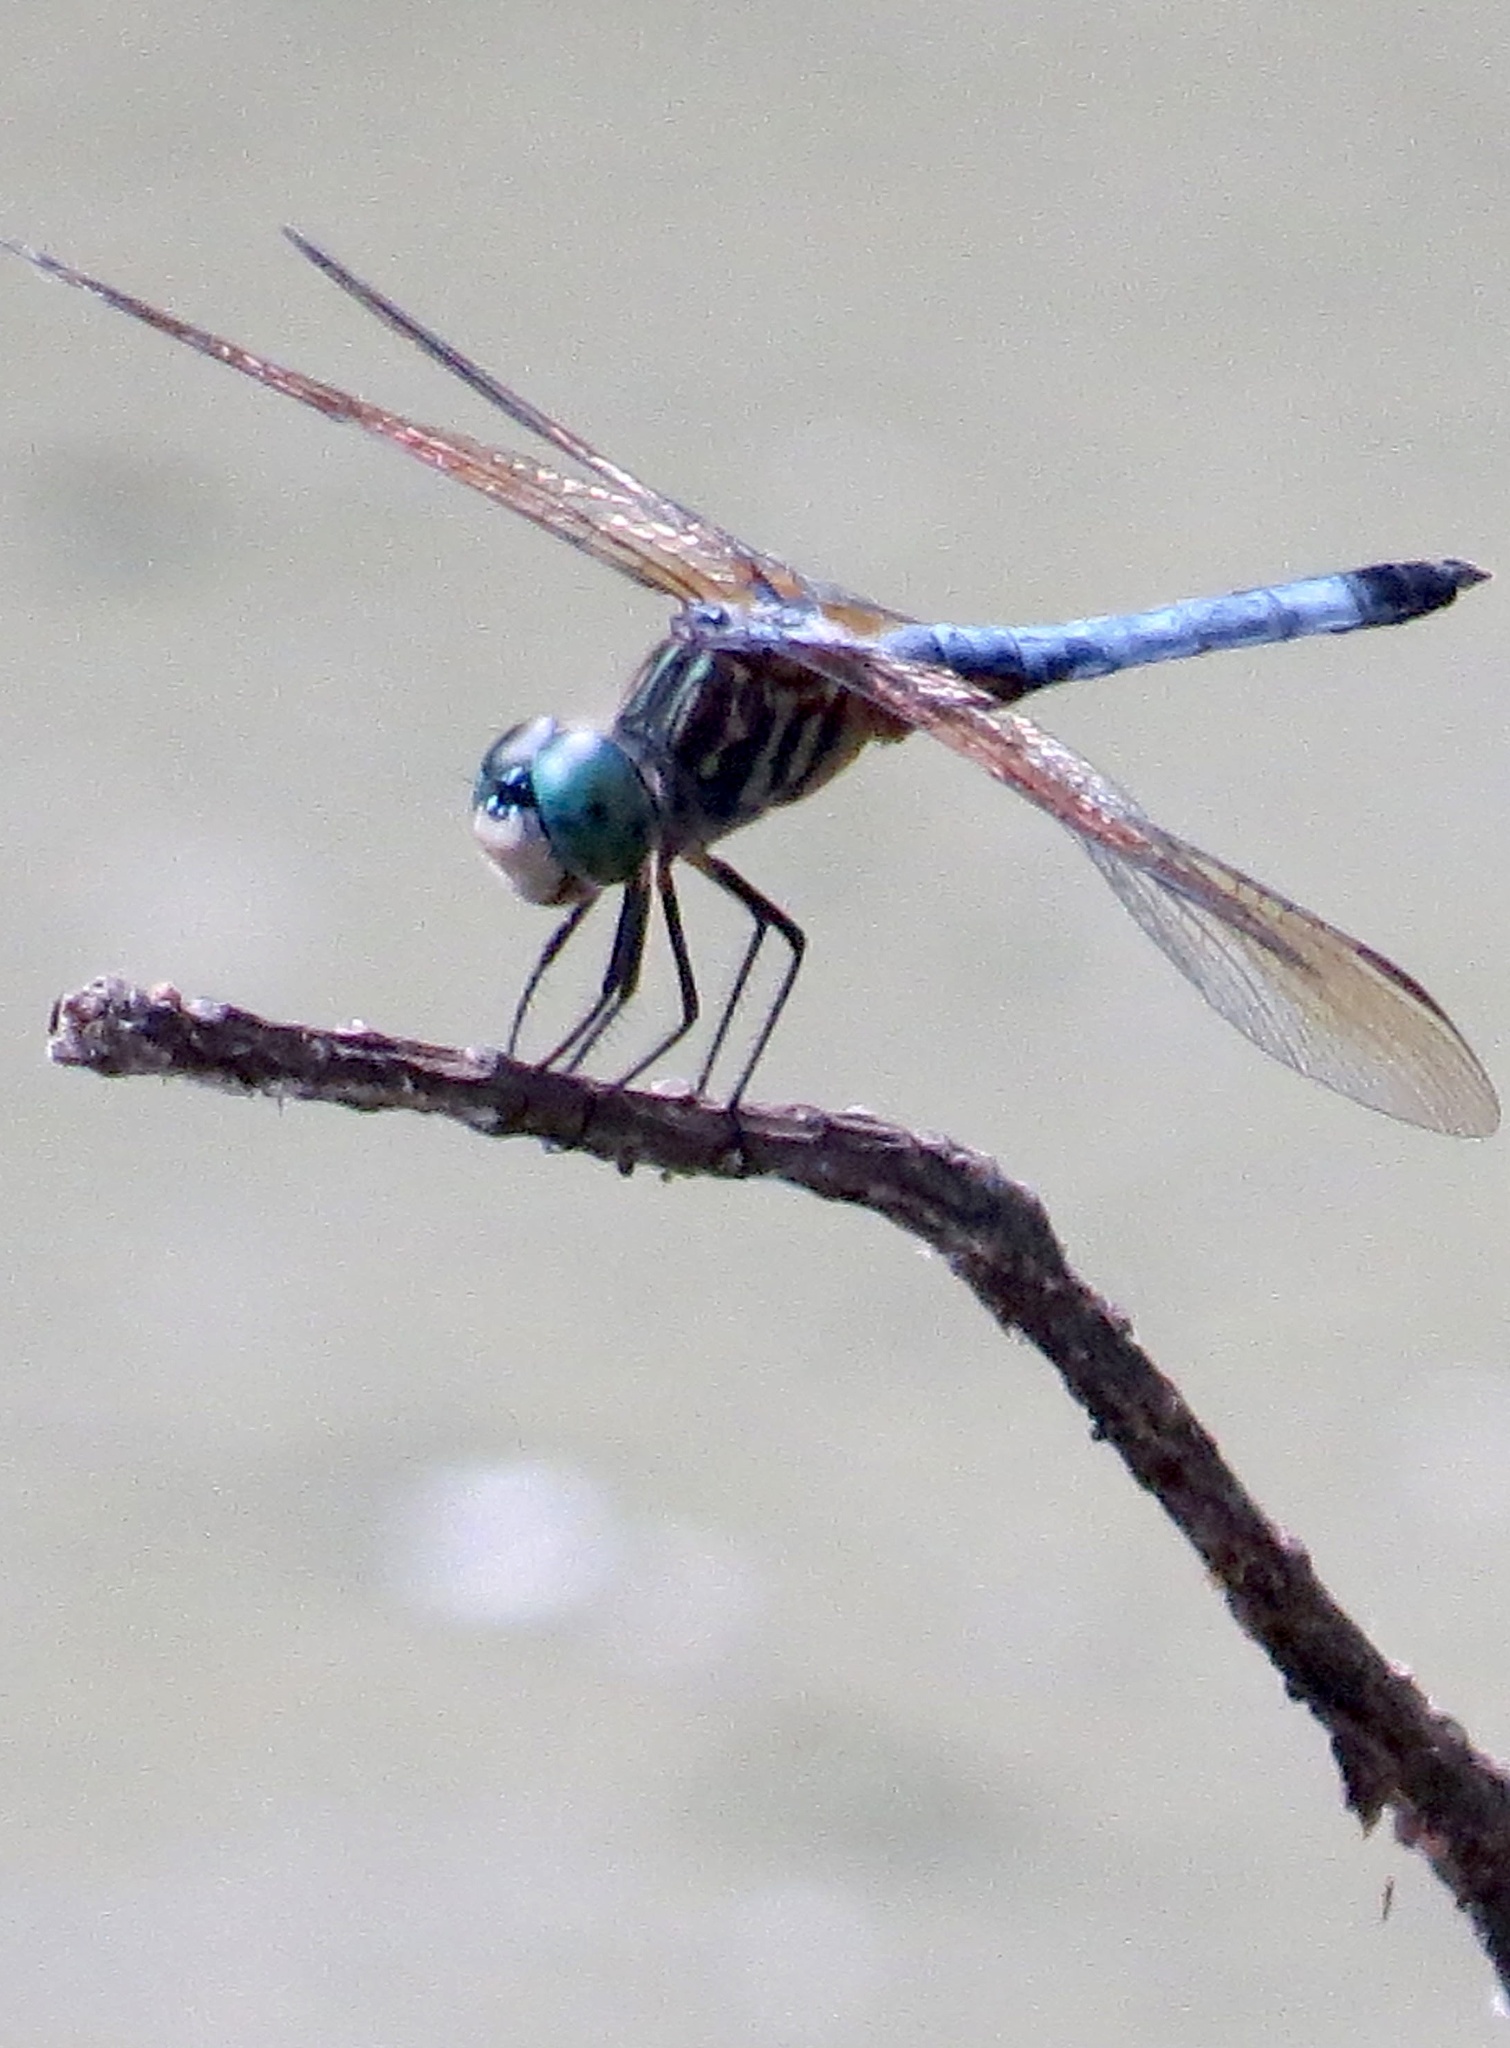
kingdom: Animalia
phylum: Arthropoda
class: Insecta
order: Odonata
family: Libellulidae
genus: Pachydiplax
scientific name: Pachydiplax longipennis
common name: Blue dasher
